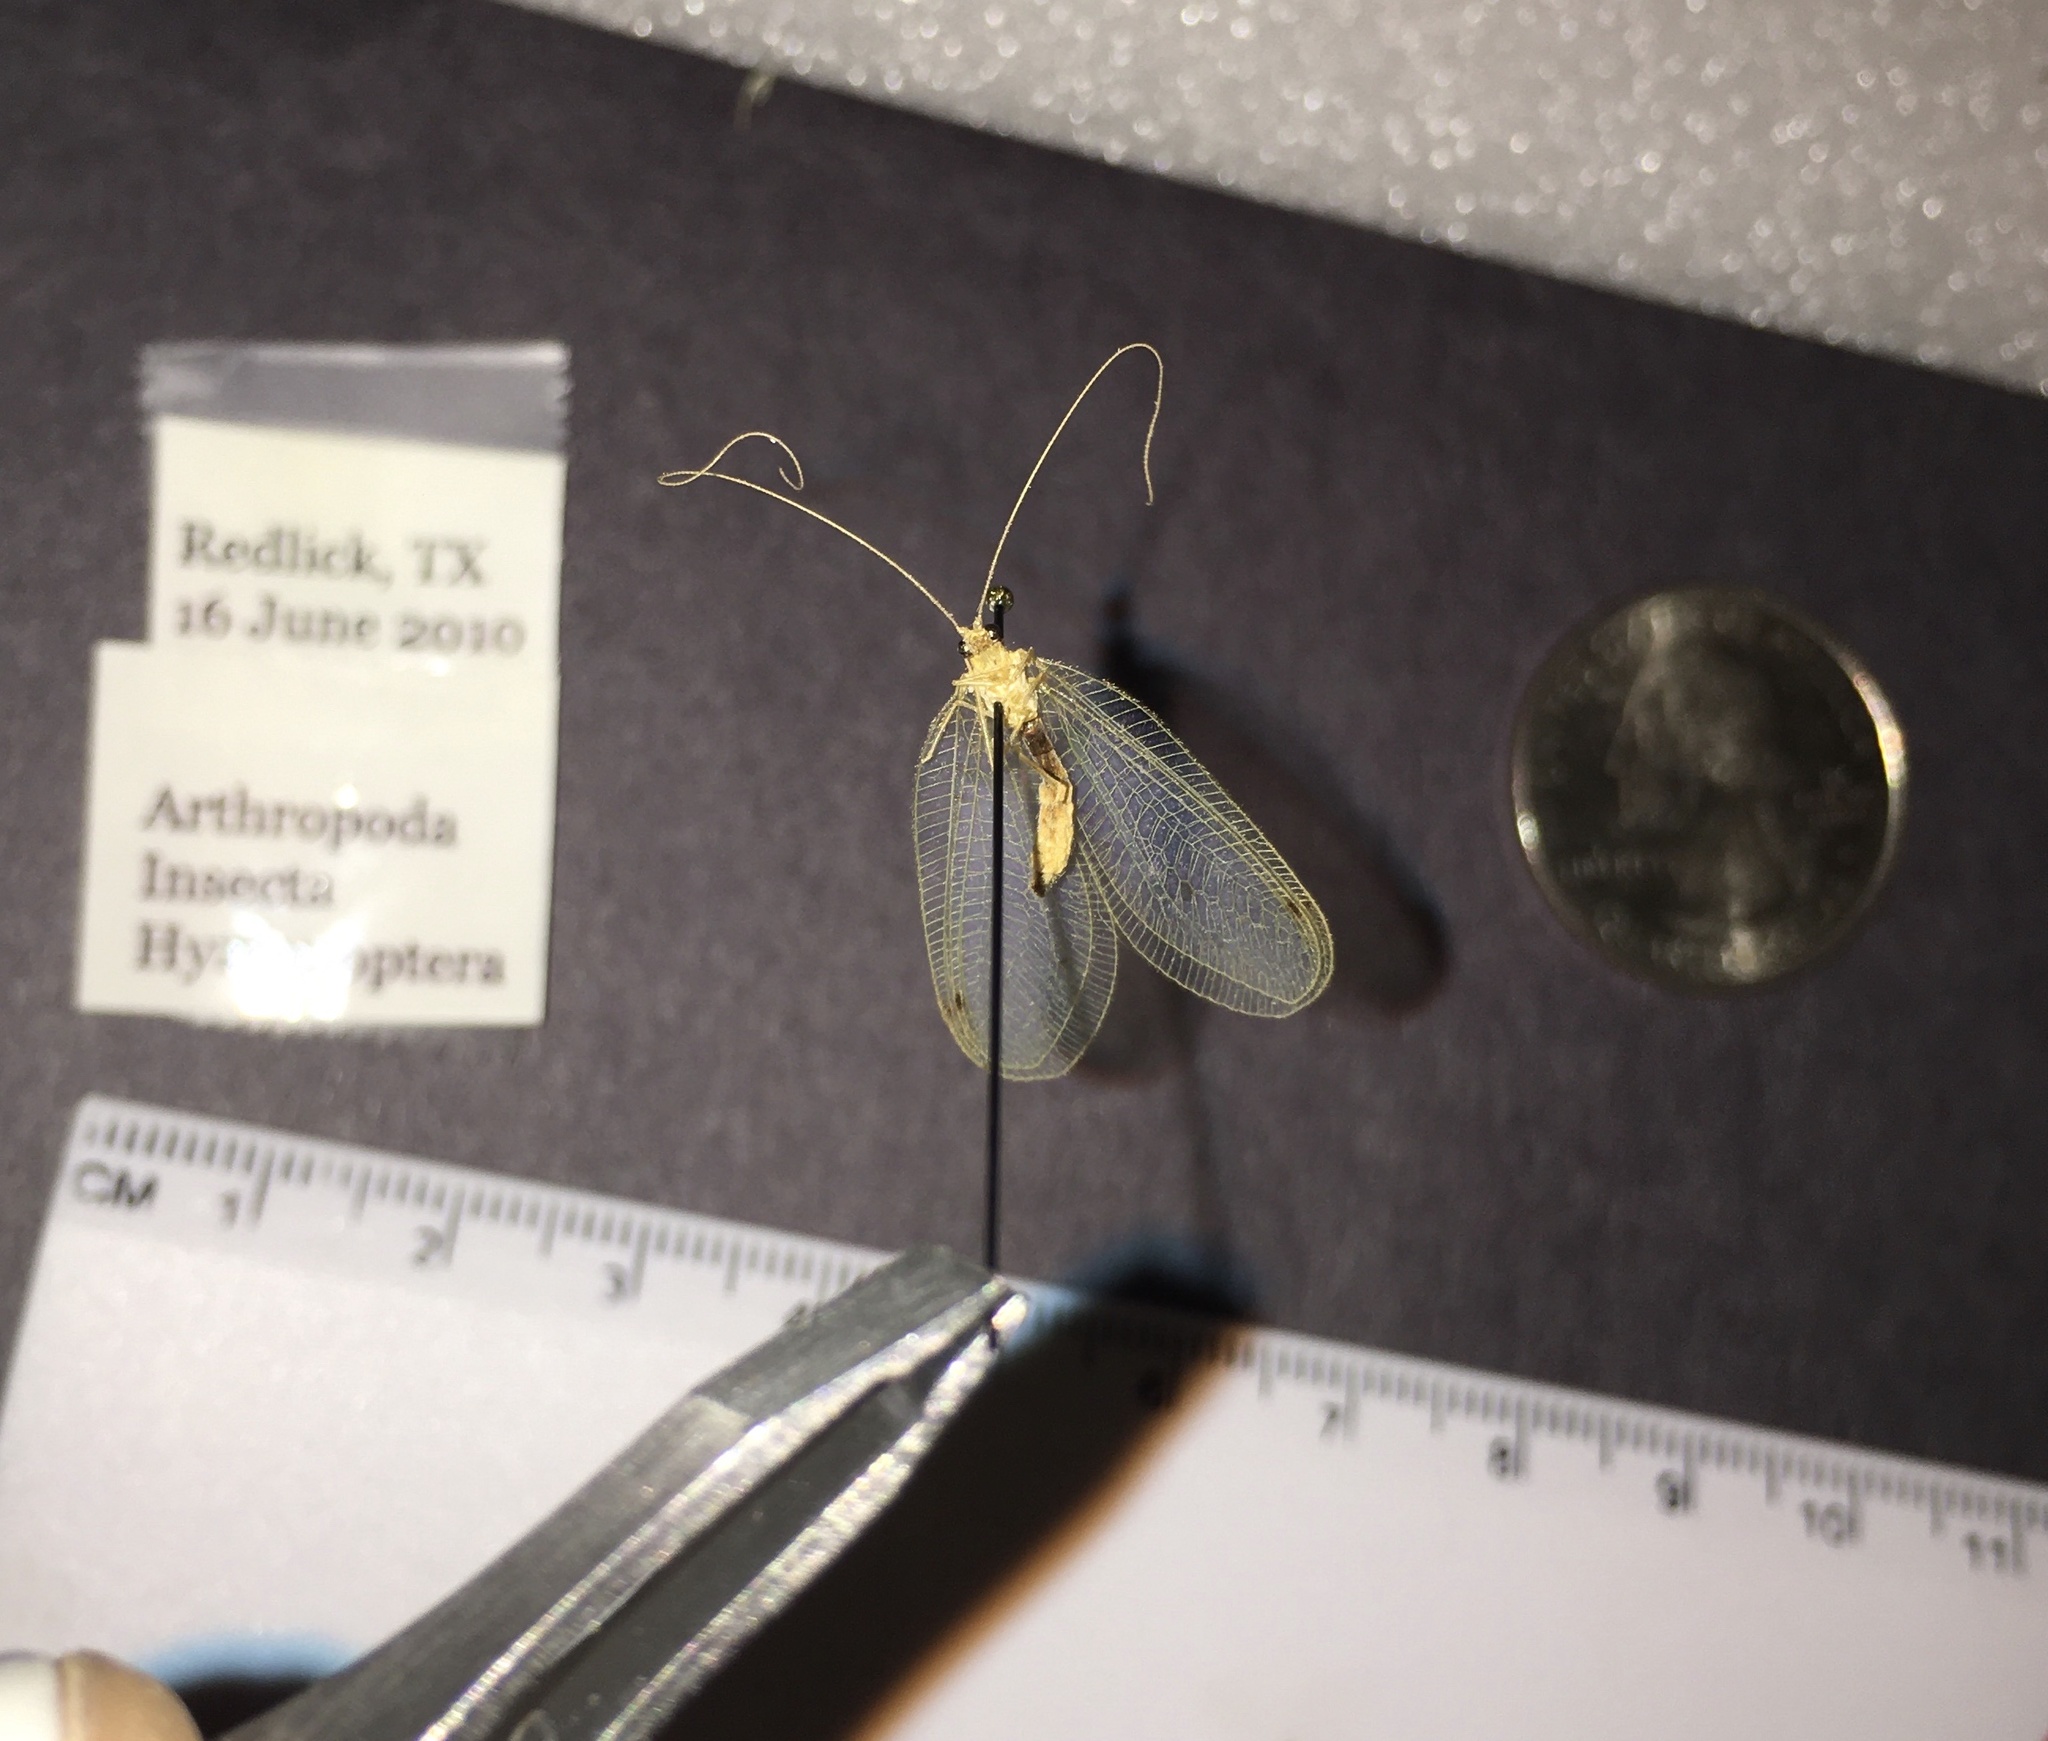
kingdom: Animalia
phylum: Arthropoda
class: Insecta
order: Neuroptera
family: Chrysopidae
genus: Leucochrysa
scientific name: Leucochrysa insularis
